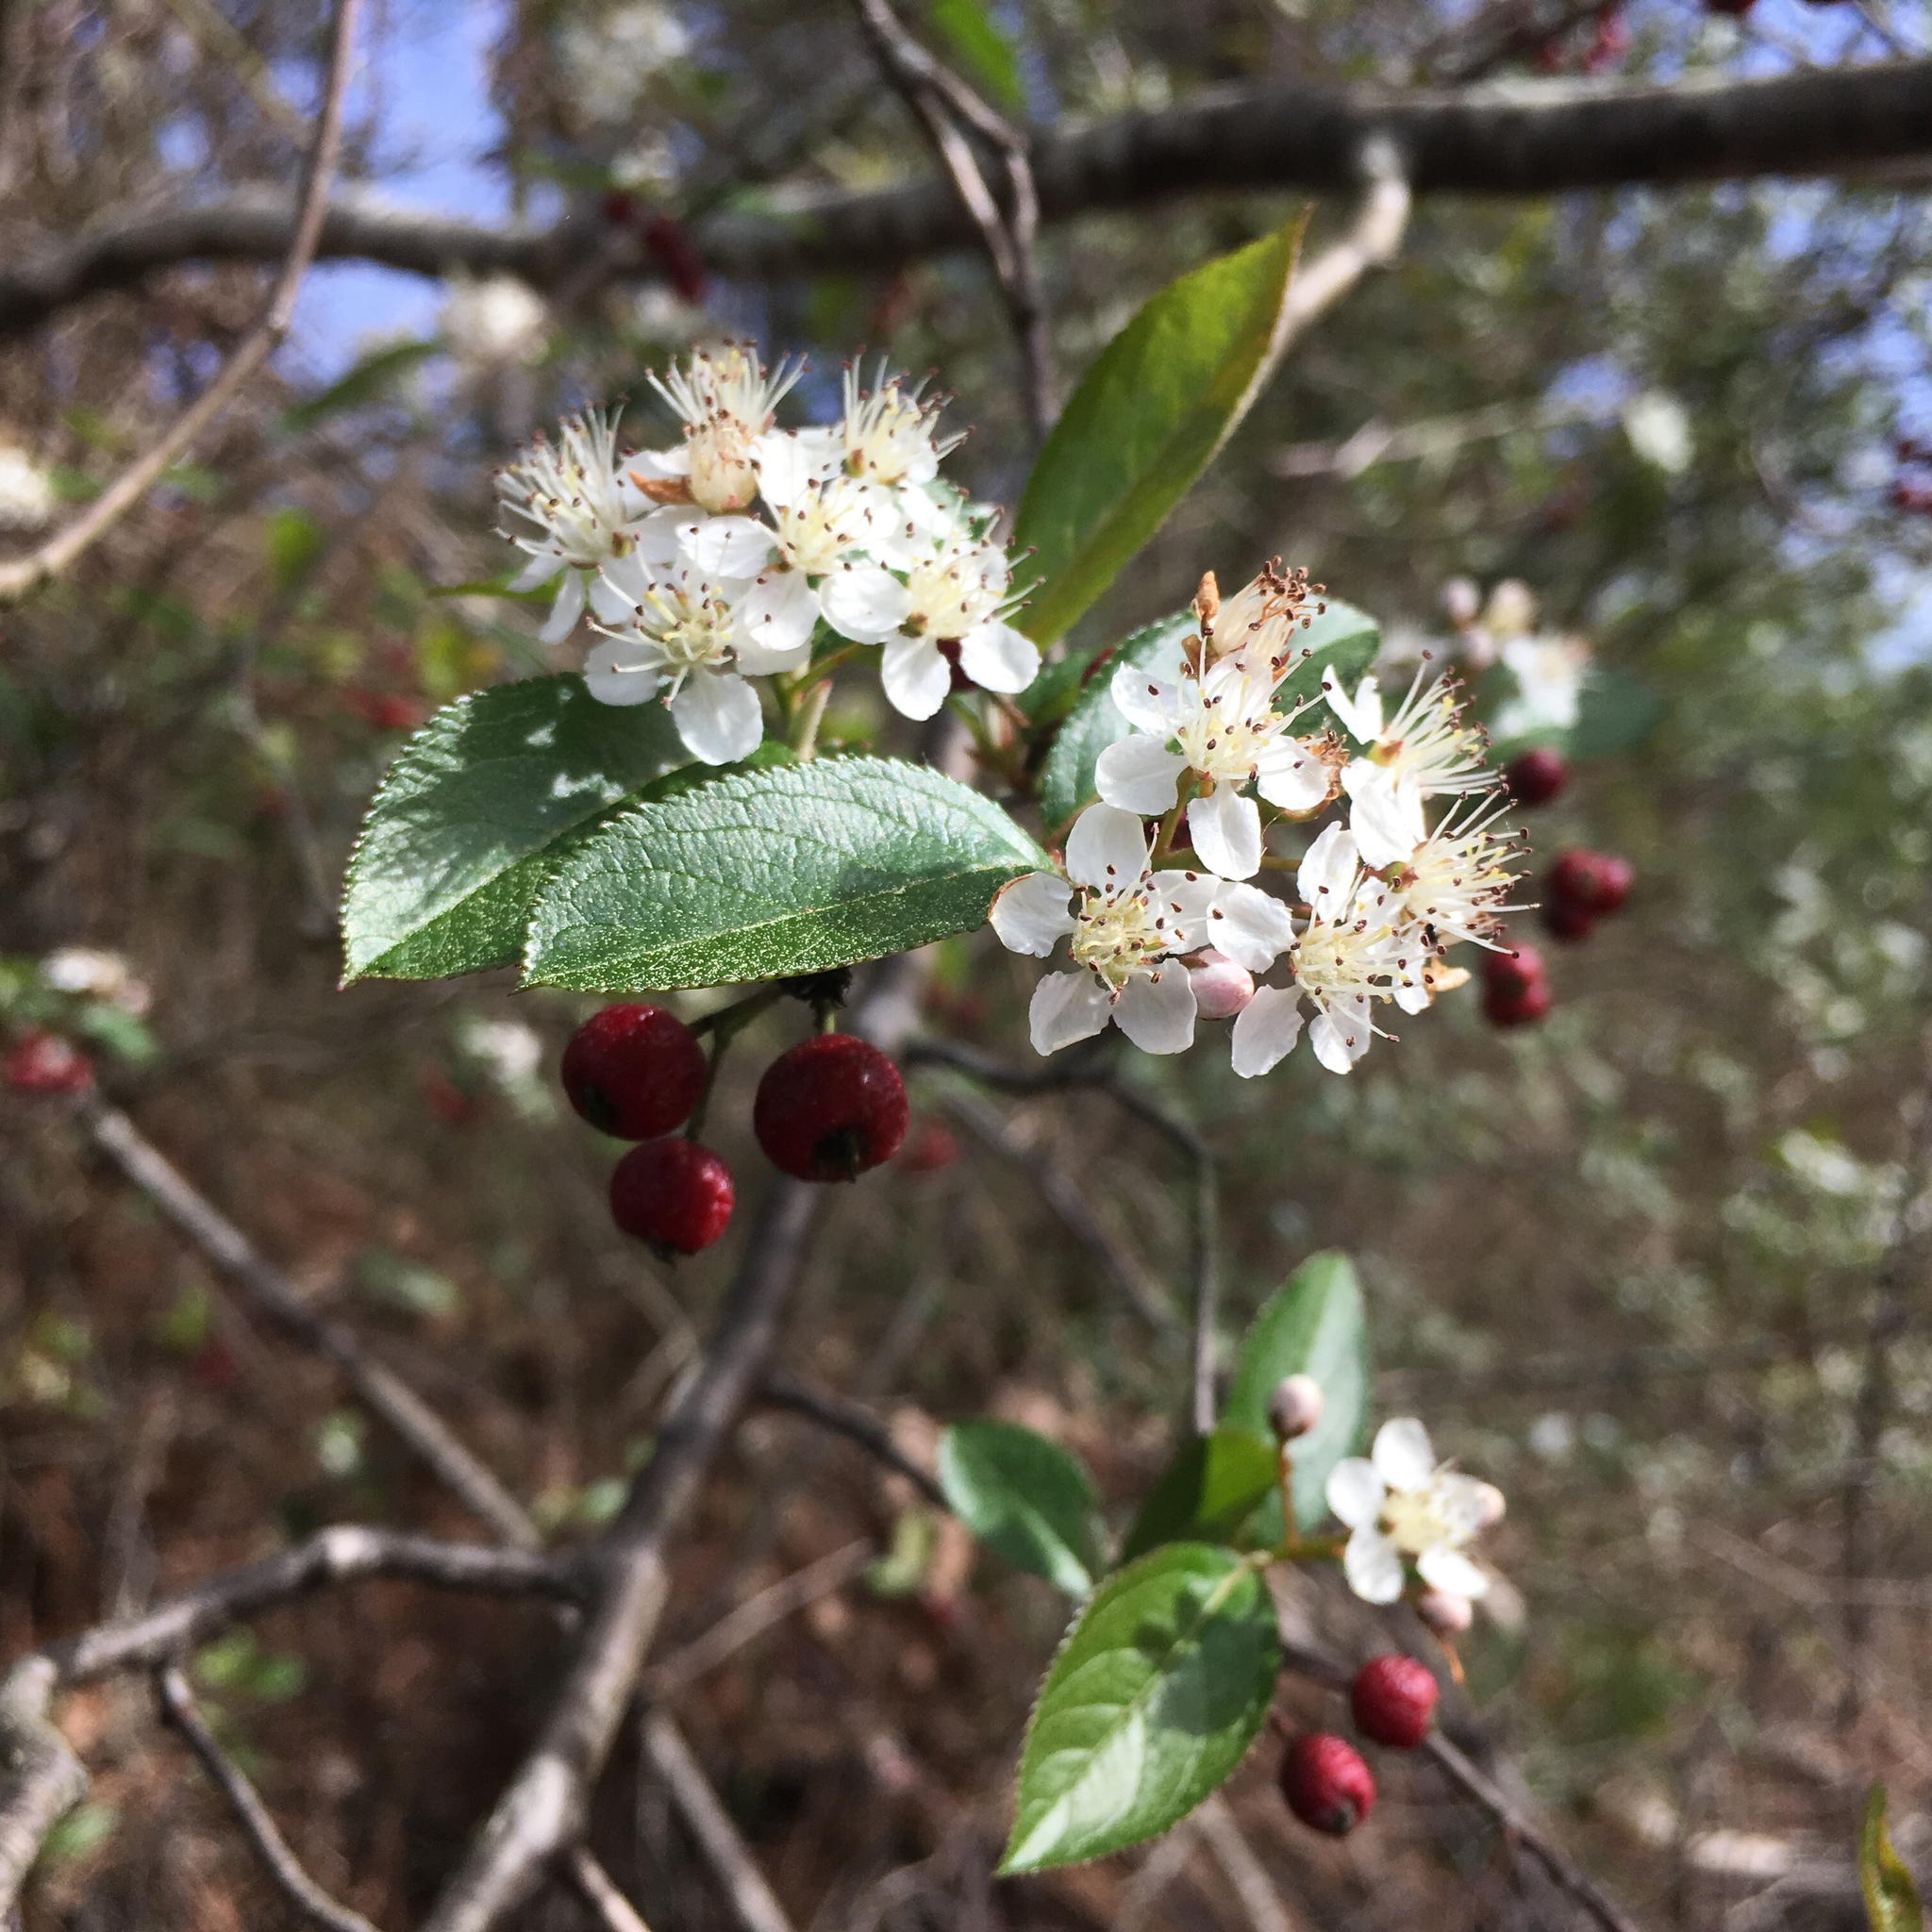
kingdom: Plantae
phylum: Tracheophyta
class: Magnoliopsida
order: Rosales
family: Rosaceae
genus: Aronia
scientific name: Aronia arbutifolia
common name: Red chokeberry
